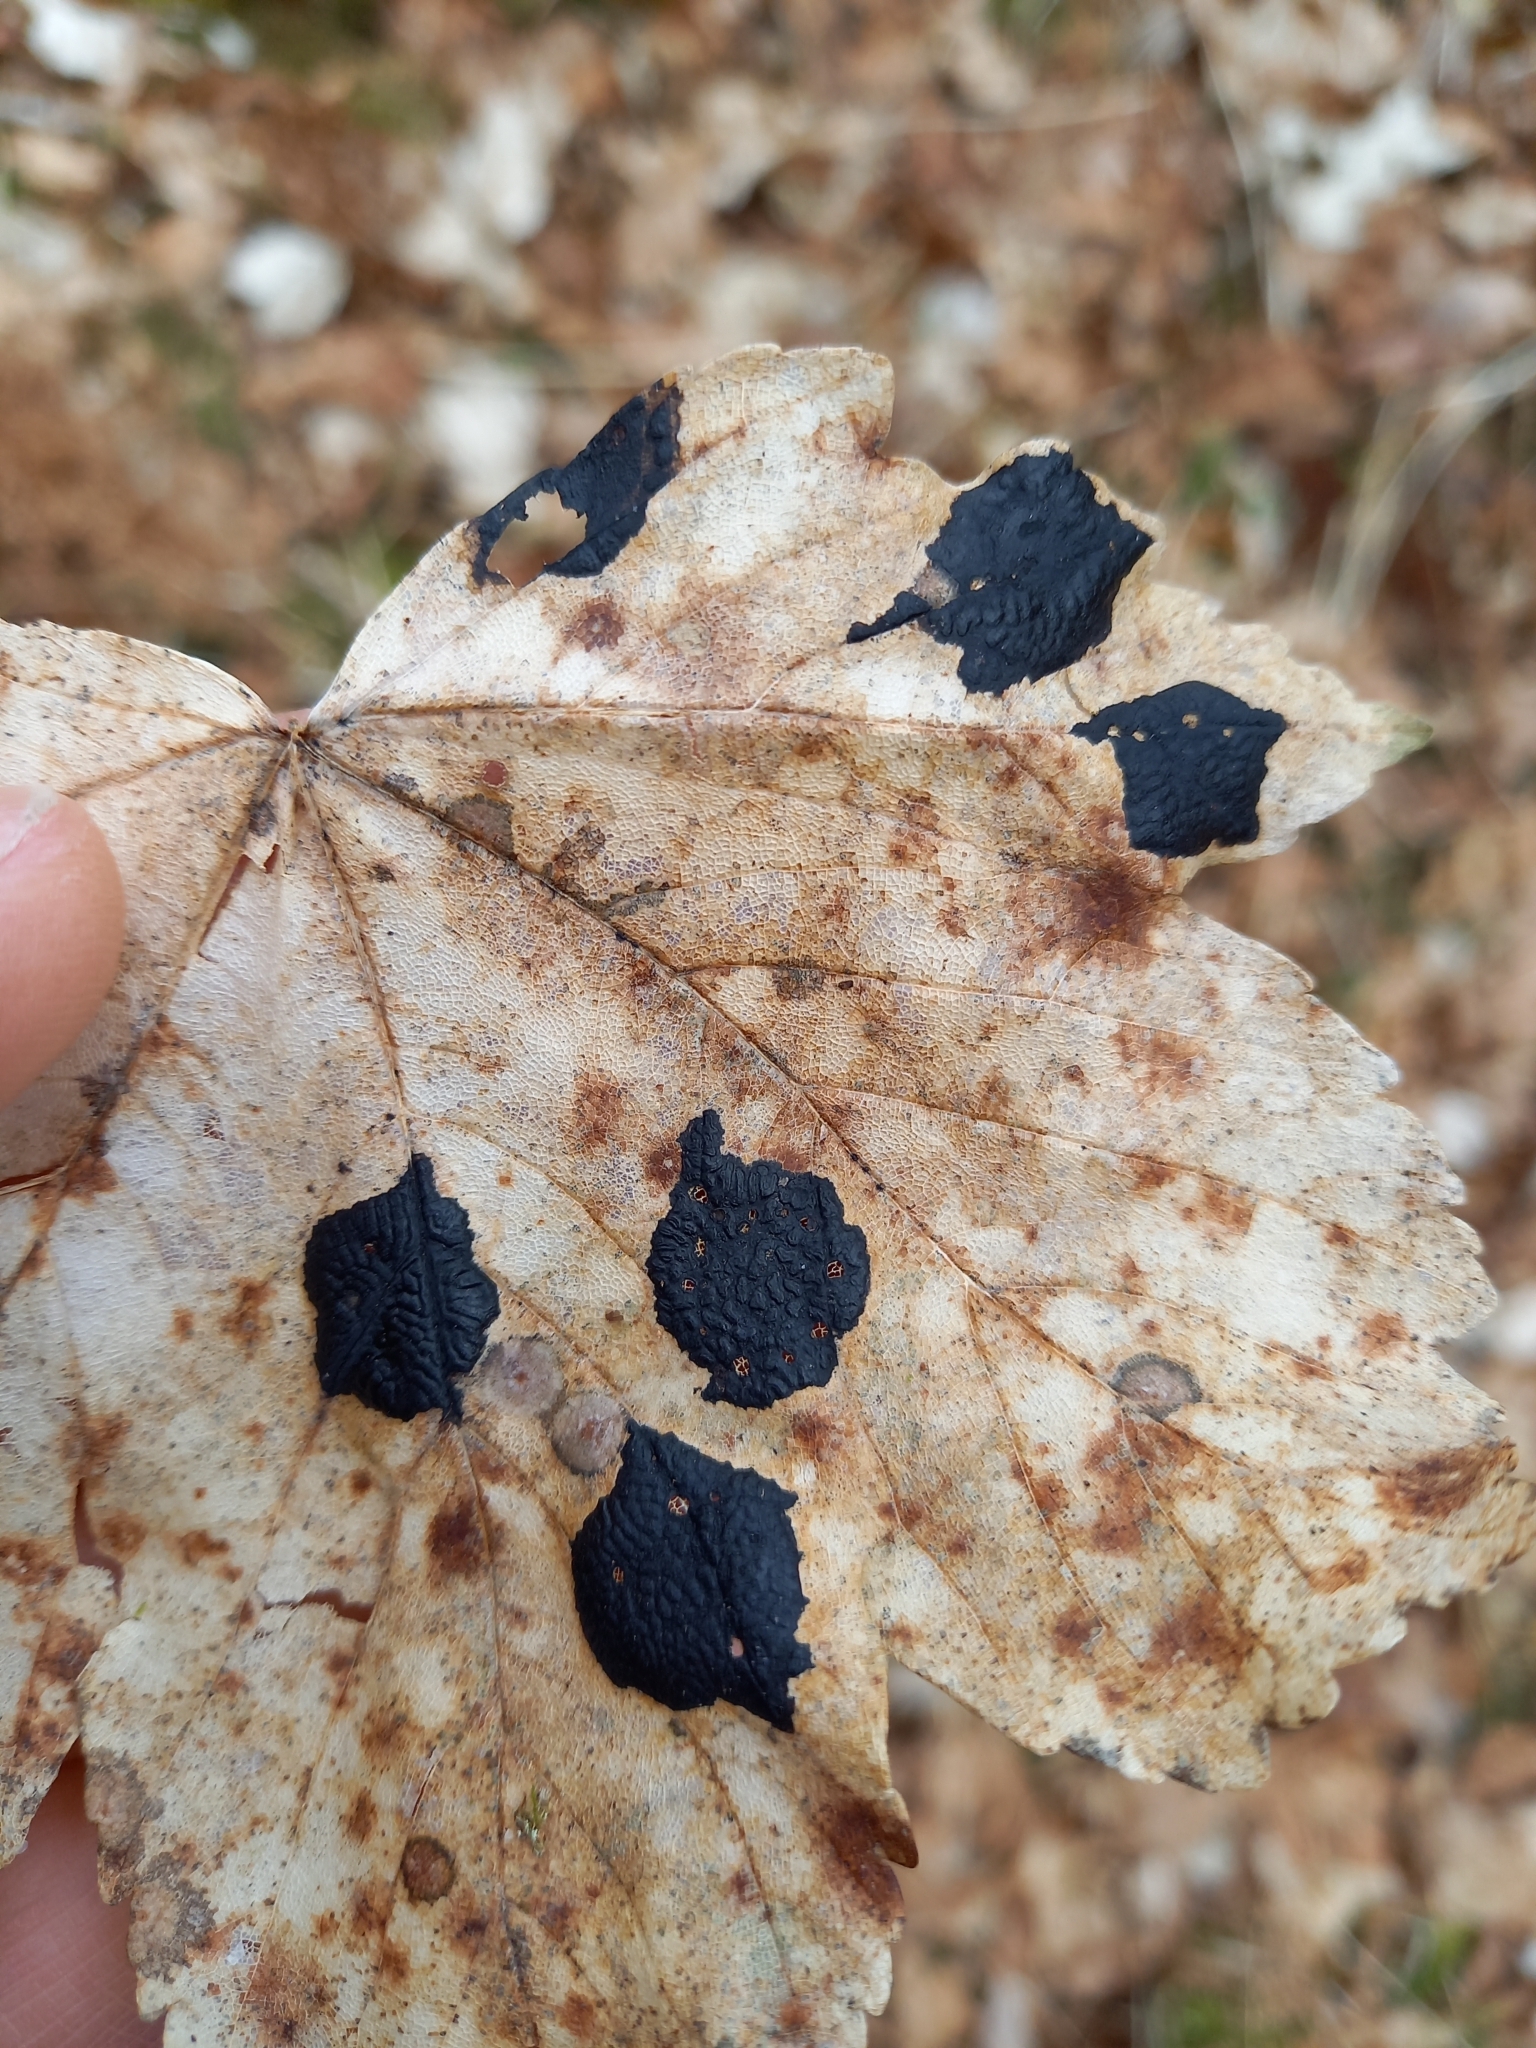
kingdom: Fungi
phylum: Ascomycota
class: Leotiomycetes
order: Rhytismatales
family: Rhytismataceae
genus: Rhytisma
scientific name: Rhytisma acerinum
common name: European tar spot
